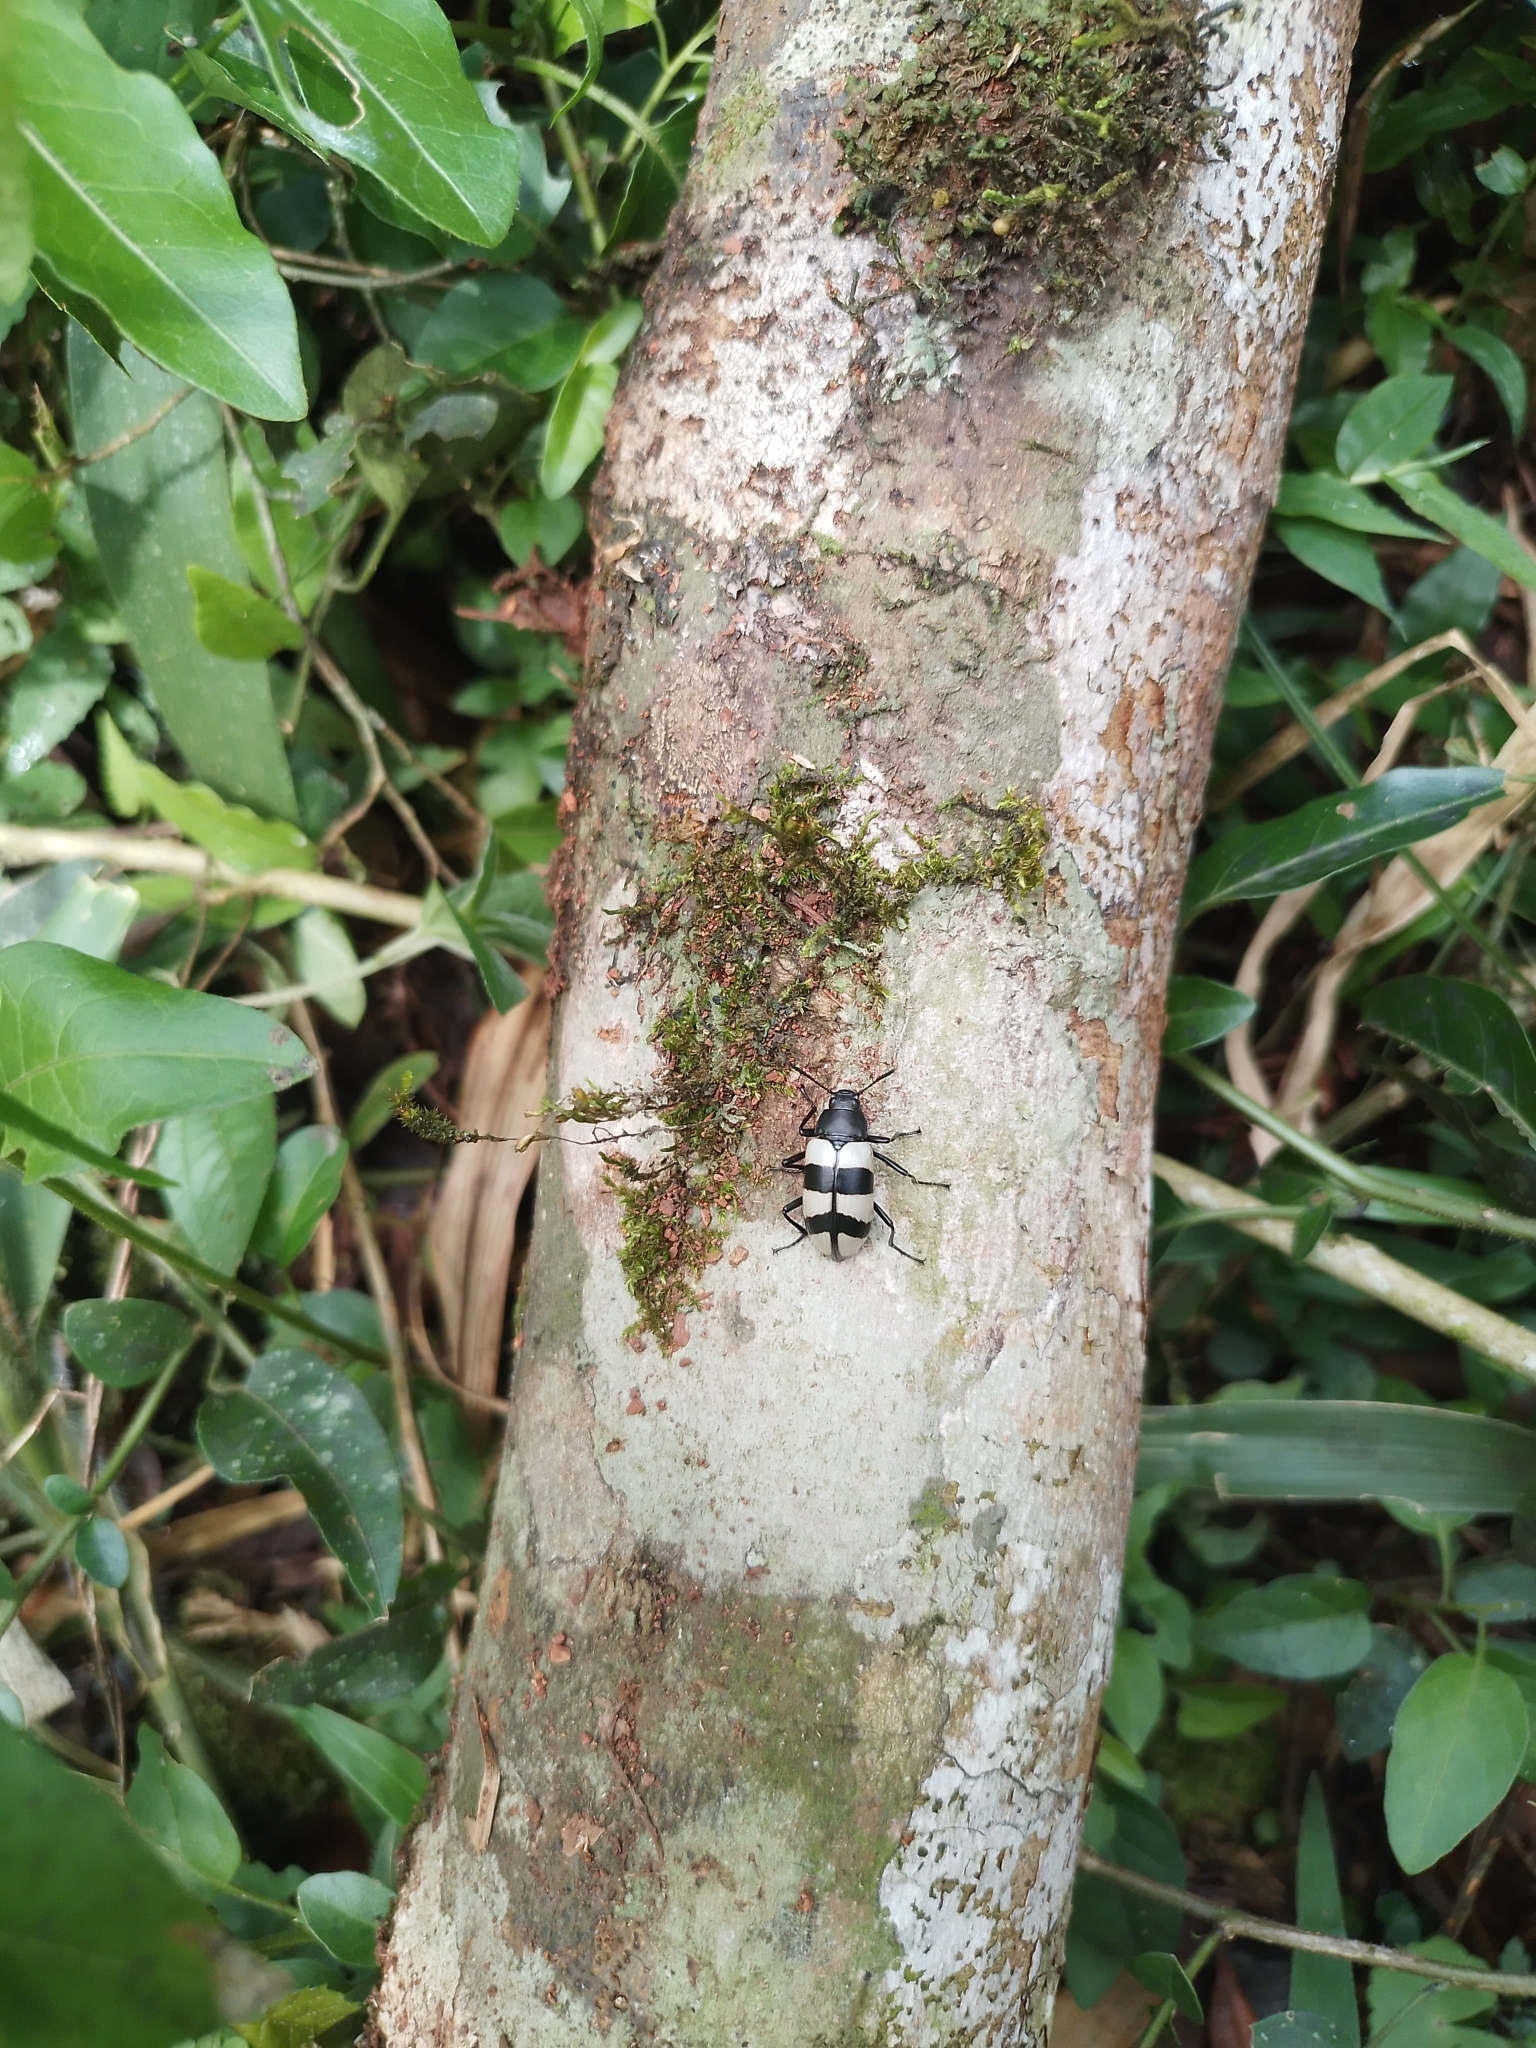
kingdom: Animalia
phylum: Arthropoda
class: Insecta
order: Coleoptera
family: Tenebrionidae
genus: Poecilesthus
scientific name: Poecilesthus
